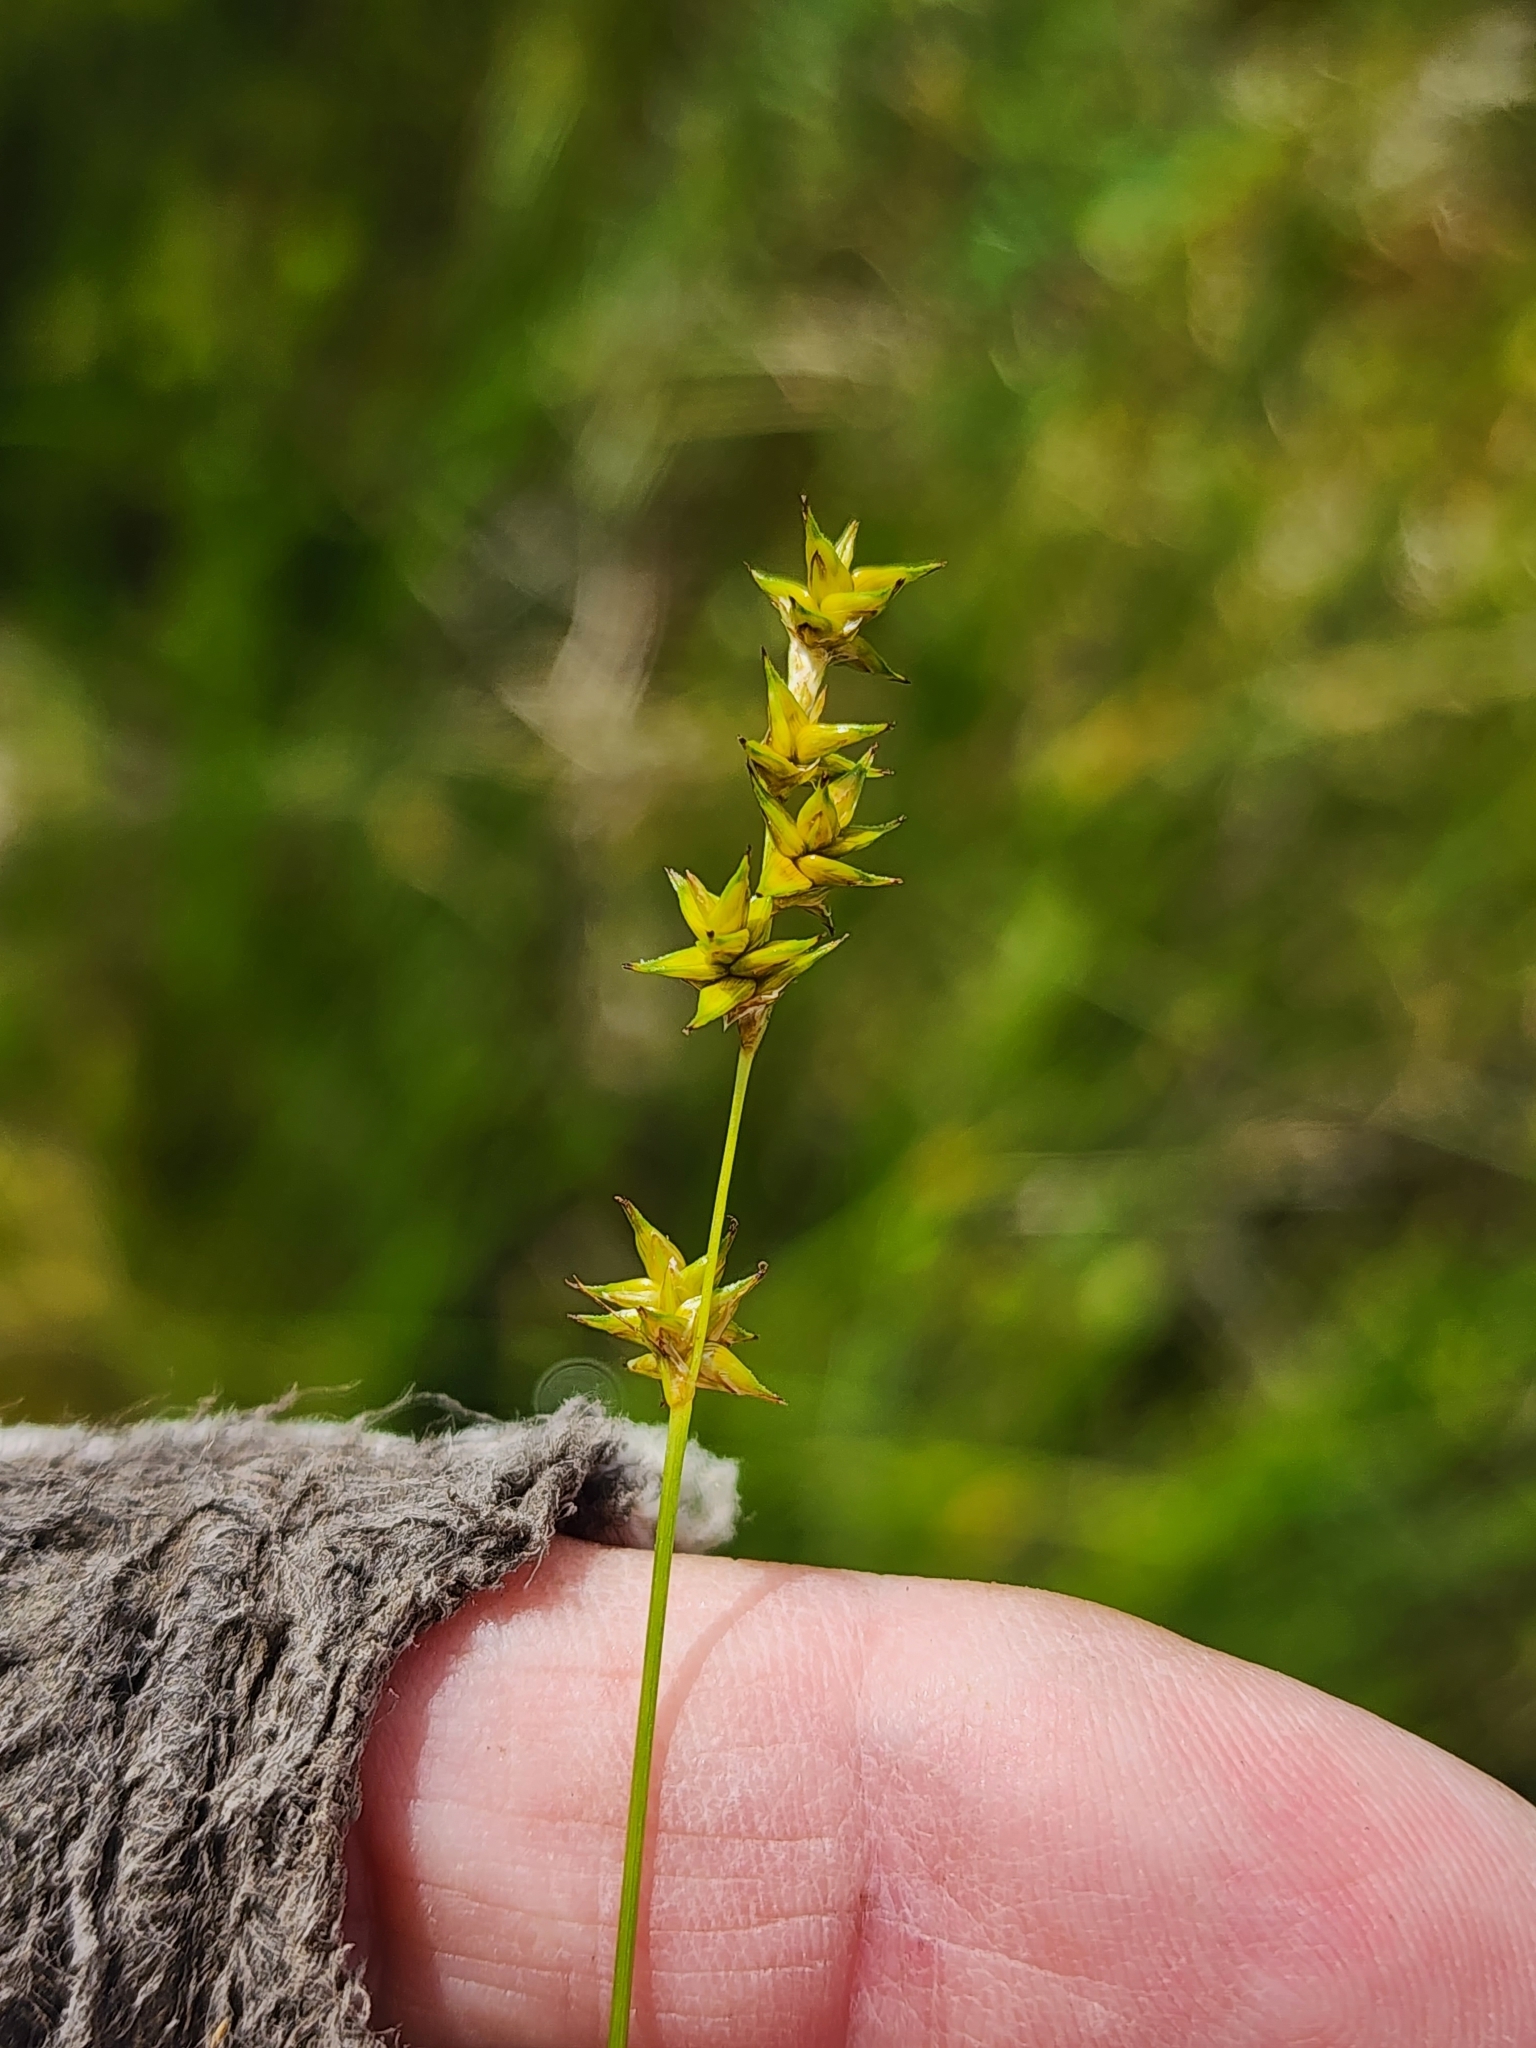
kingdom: Plantae
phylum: Tracheophyta
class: Liliopsida
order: Poales
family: Cyperaceae
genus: Carex
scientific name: Carex interior
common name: Inland sedge
